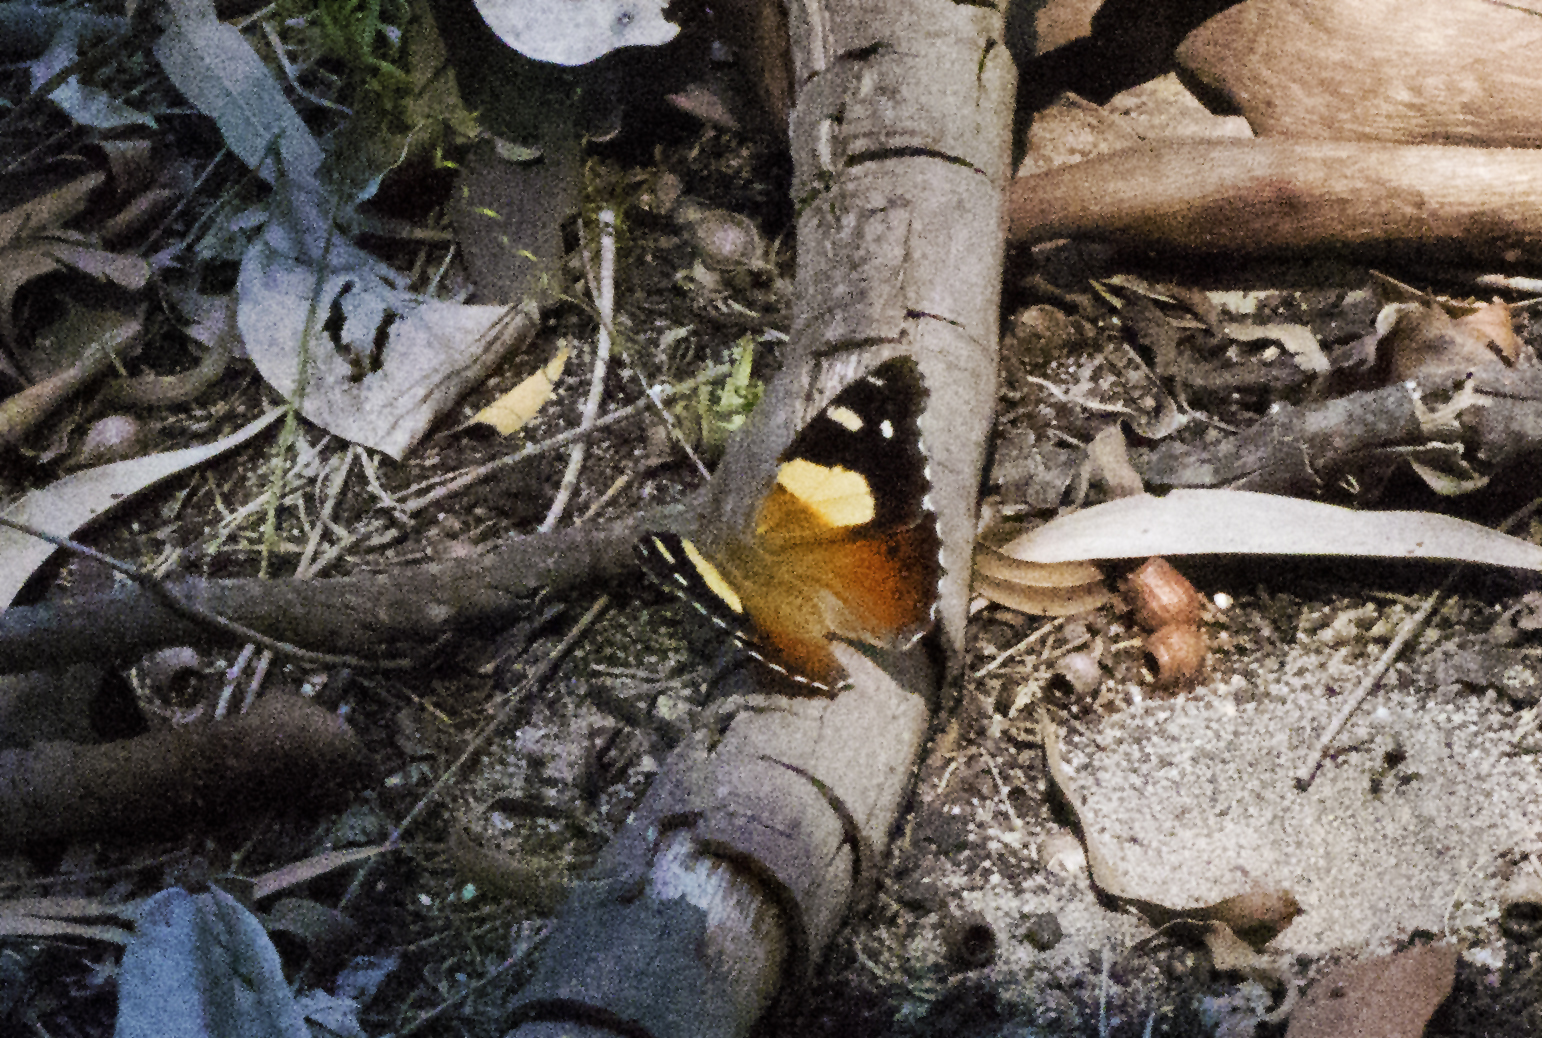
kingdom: Animalia
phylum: Arthropoda
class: Insecta
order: Lepidoptera
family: Nymphalidae
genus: Vanessa
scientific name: Vanessa itea
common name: Yellow admiral
